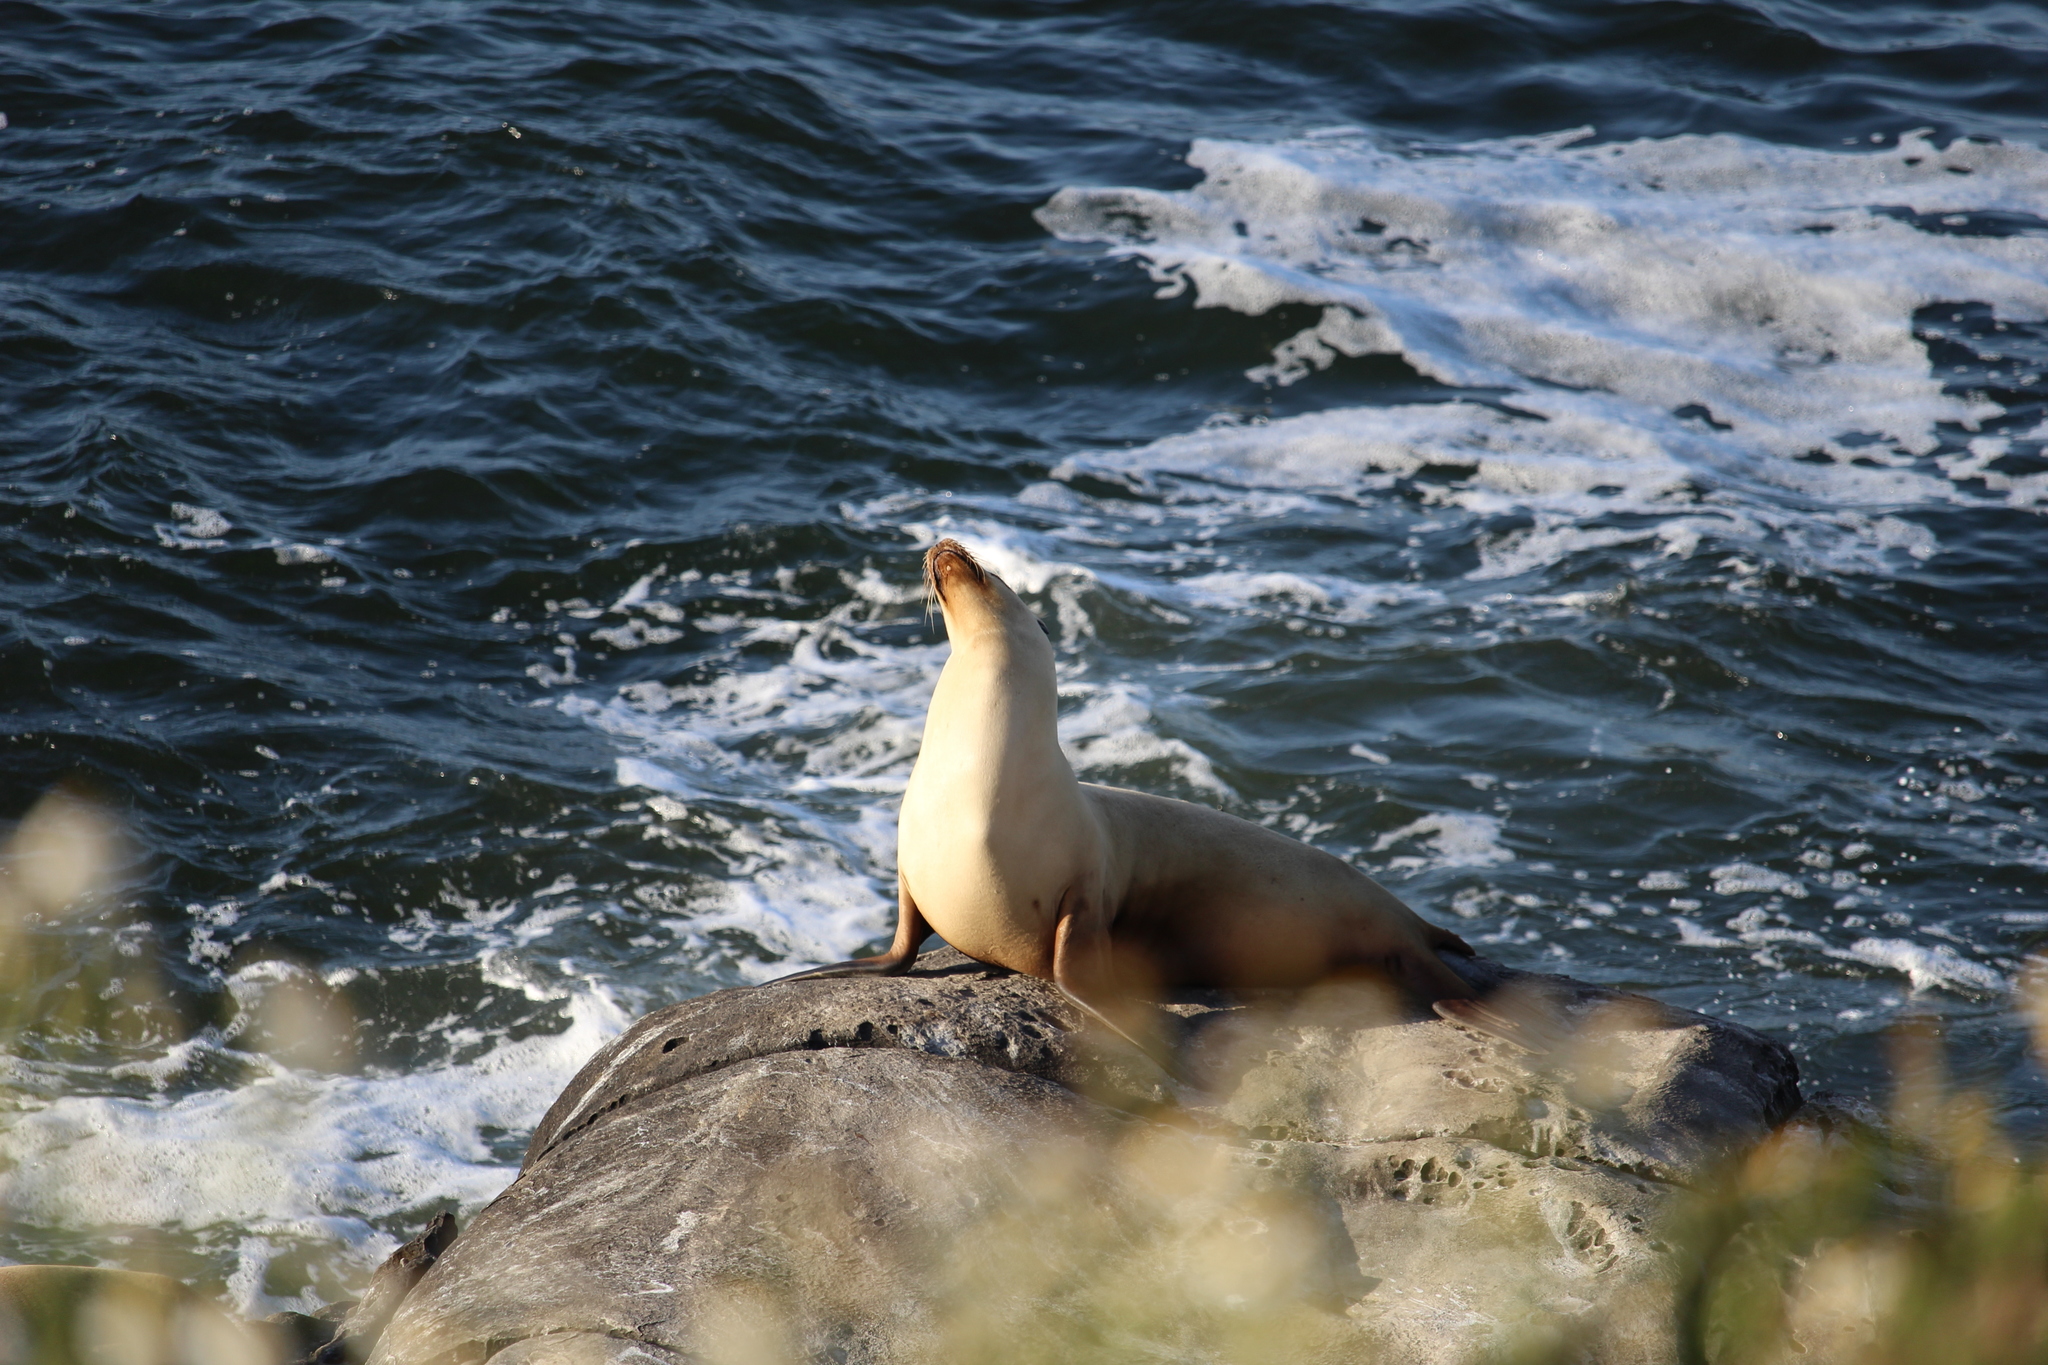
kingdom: Animalia
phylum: Chordata
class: Mammalia
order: Carnivora
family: Otariidae
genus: Zalophus
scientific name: Zalophus californianus
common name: California sea lion
